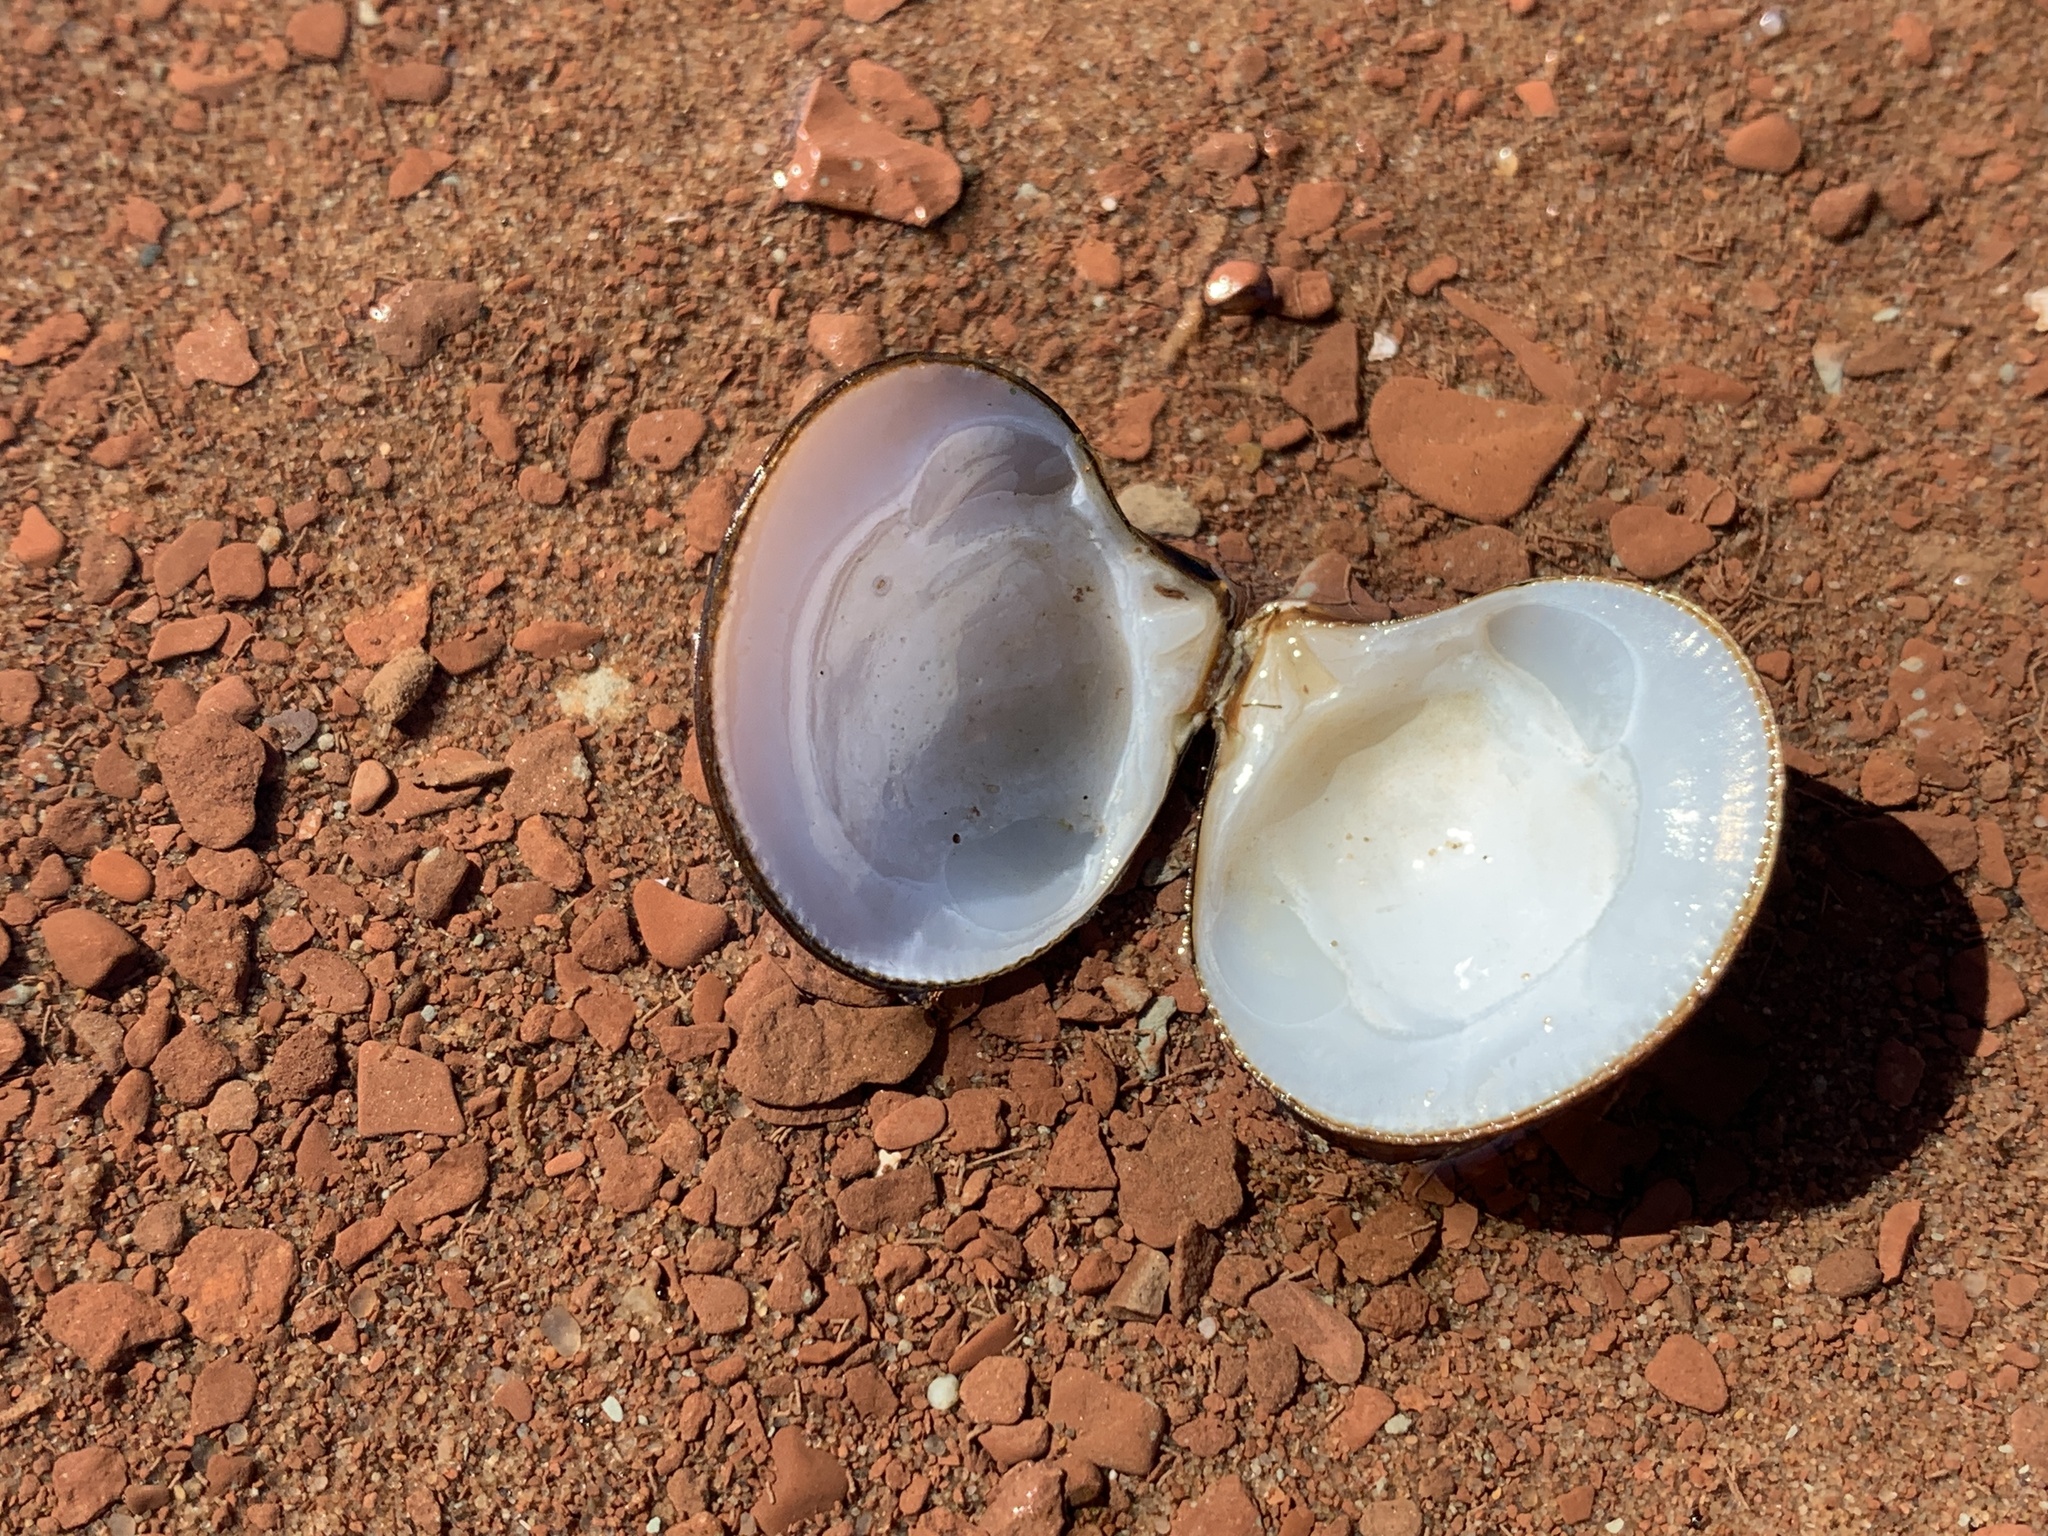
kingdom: Animalia
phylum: Mollusca
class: Bivalvia
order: Cardiida
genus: Isocrassina
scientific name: Isocrassina
